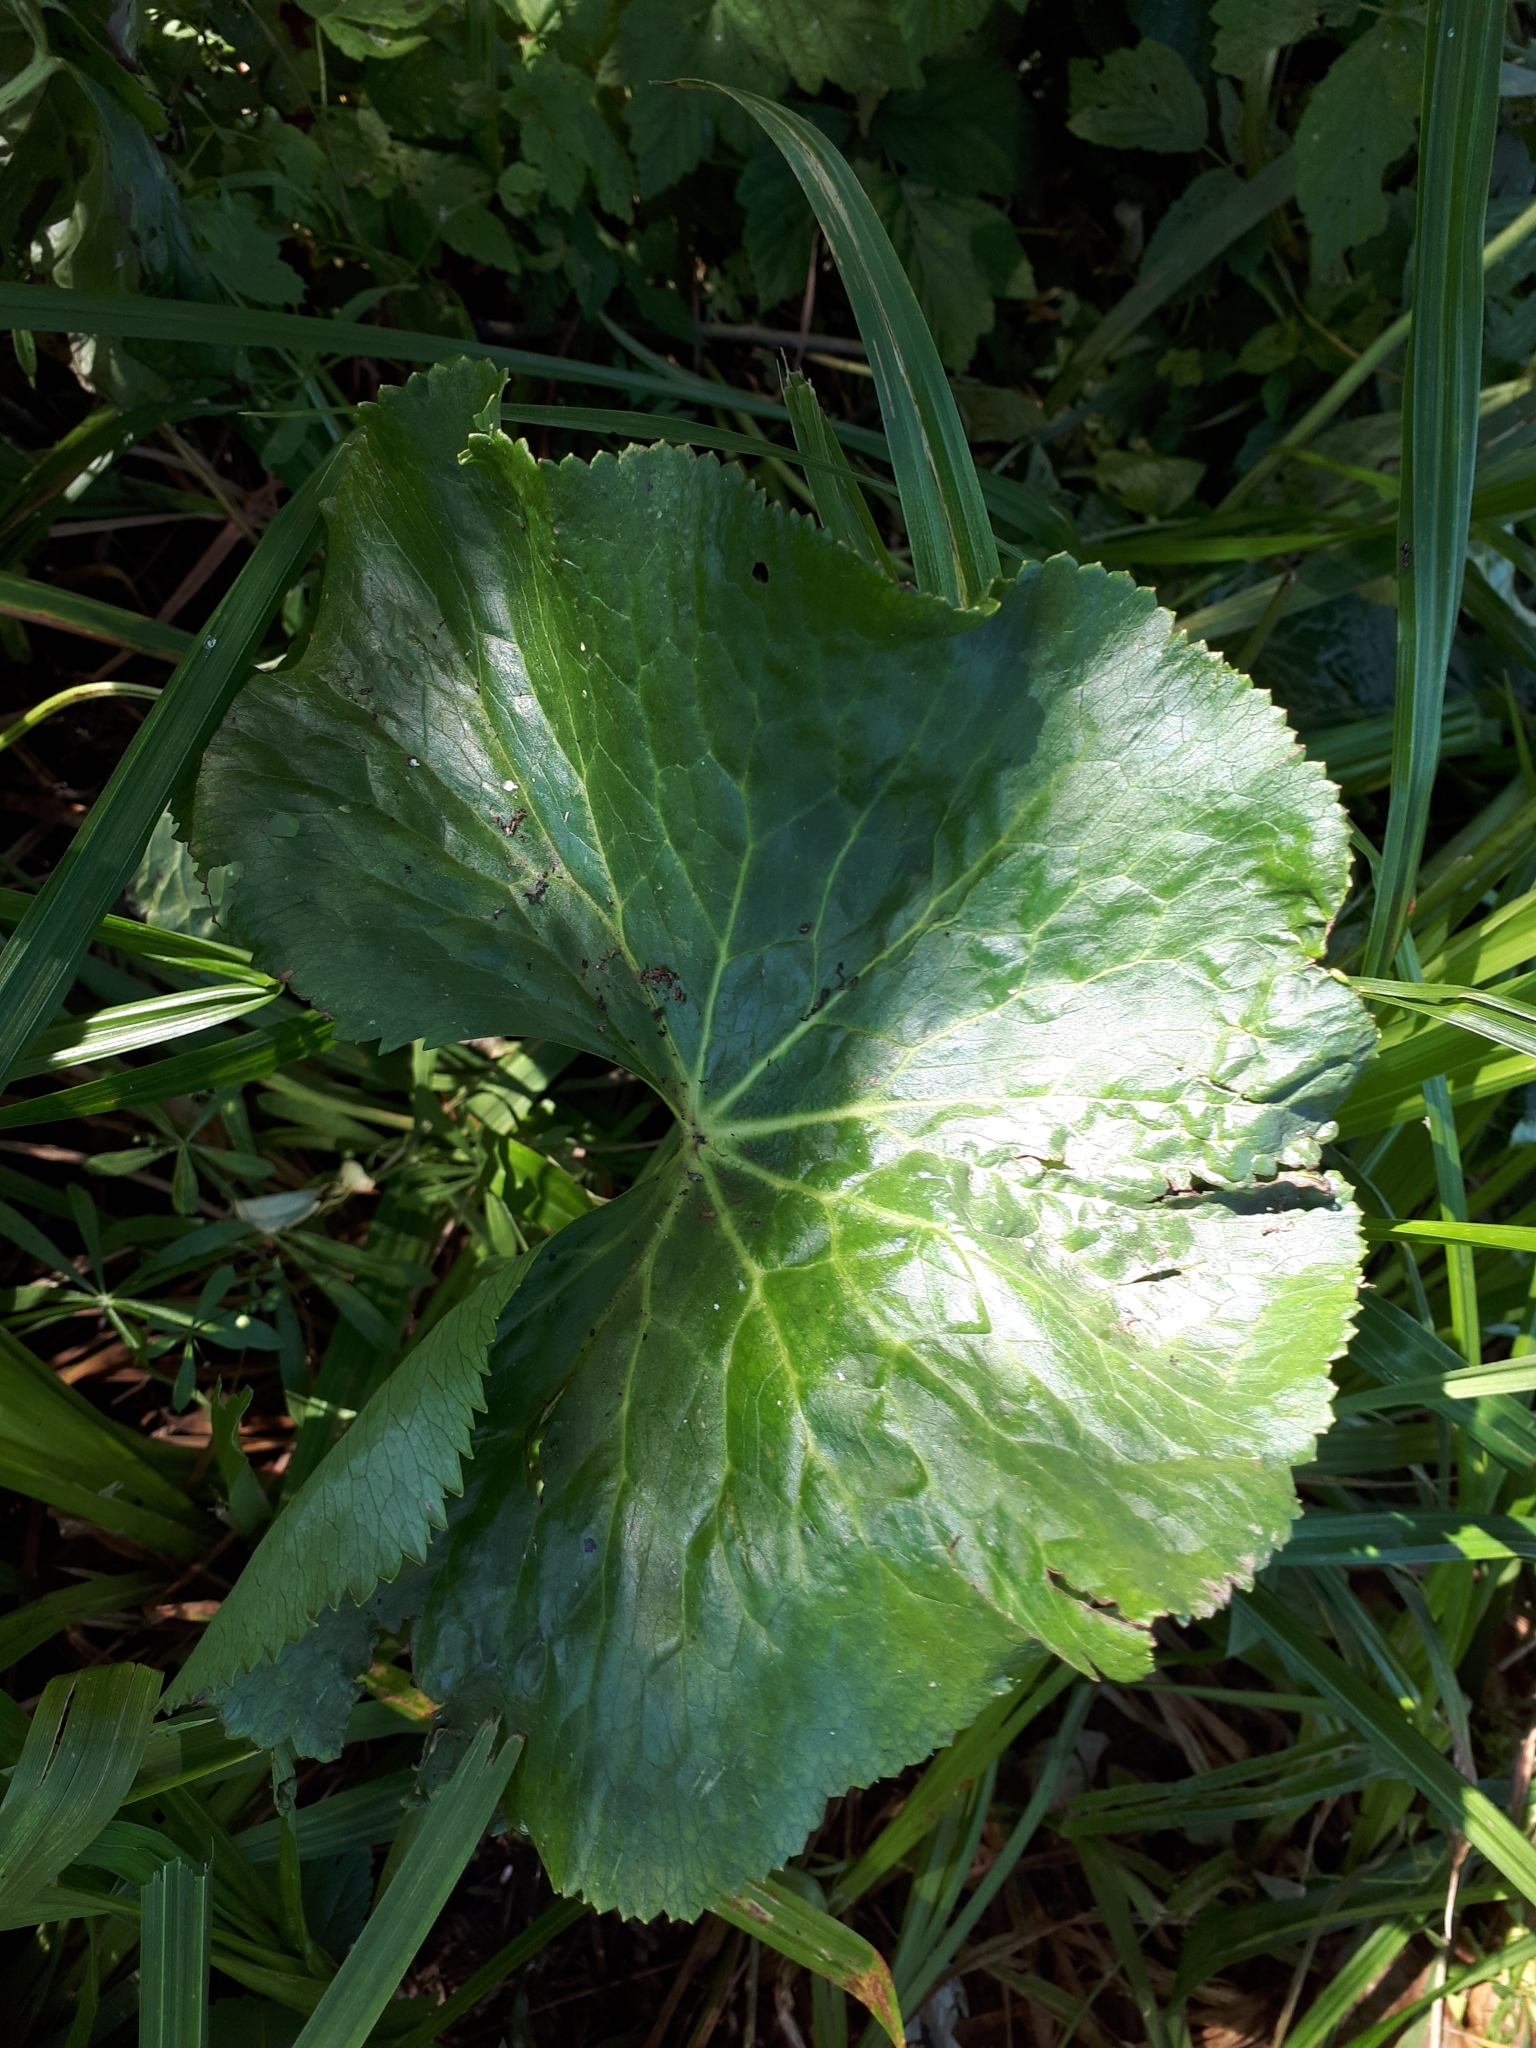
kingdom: Plantae
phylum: Tracheophyta
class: Magnoliopsida
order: Ranunculales
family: Ranunculaceae
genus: Caltha
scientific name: Caltha palustris
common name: Marsh marigold
